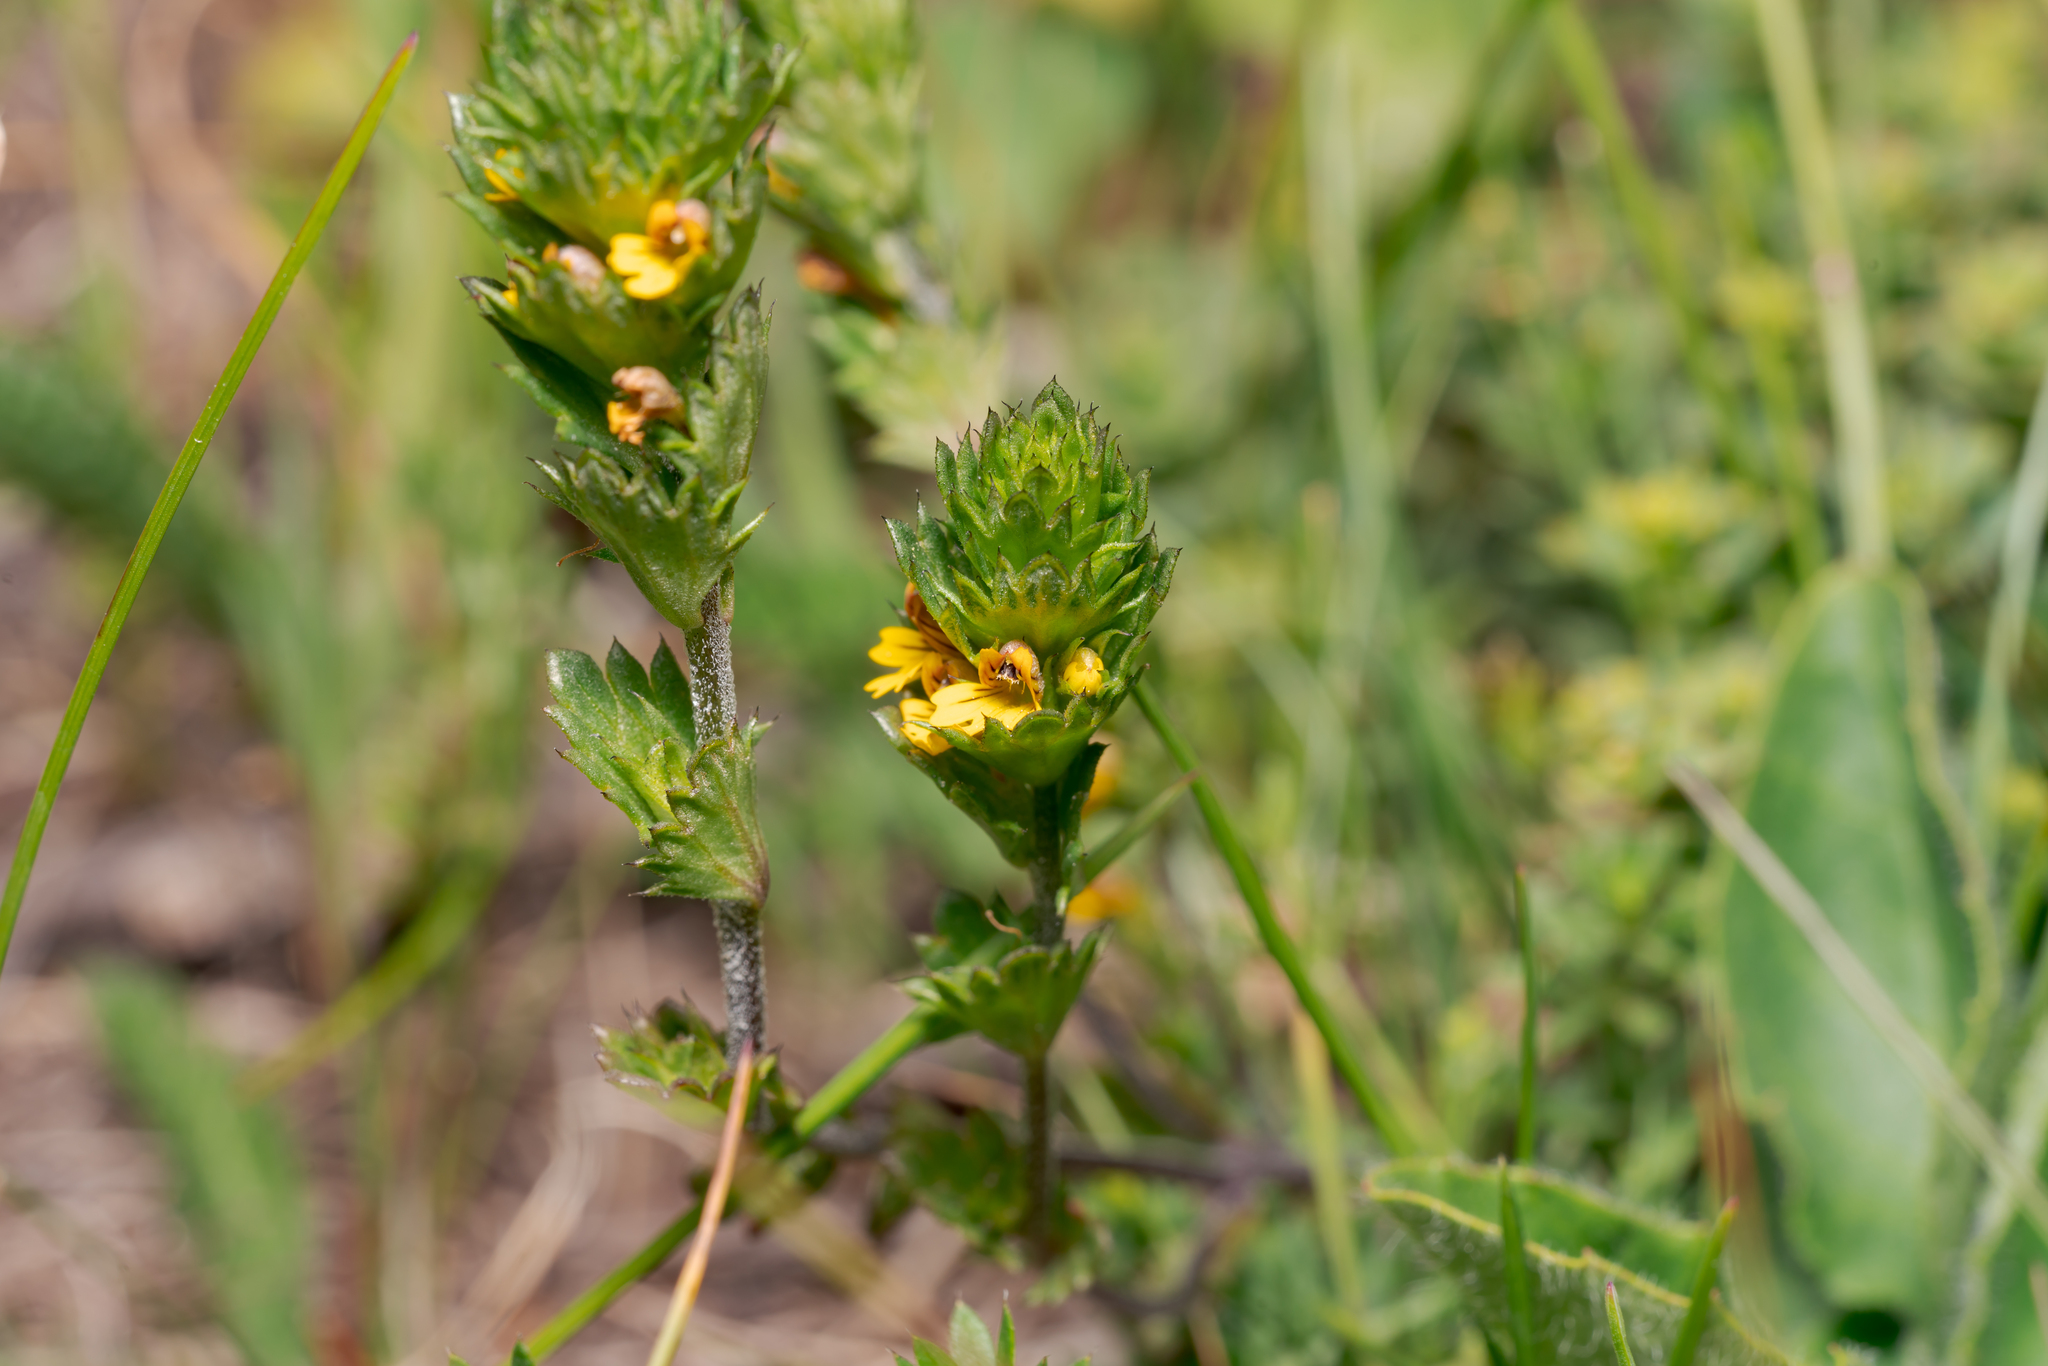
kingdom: Plantae
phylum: Tracheophyta
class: Magnoliopsida
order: Lamiales
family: Orobanchaceae
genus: Euphrasia
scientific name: Euphrasia minima
